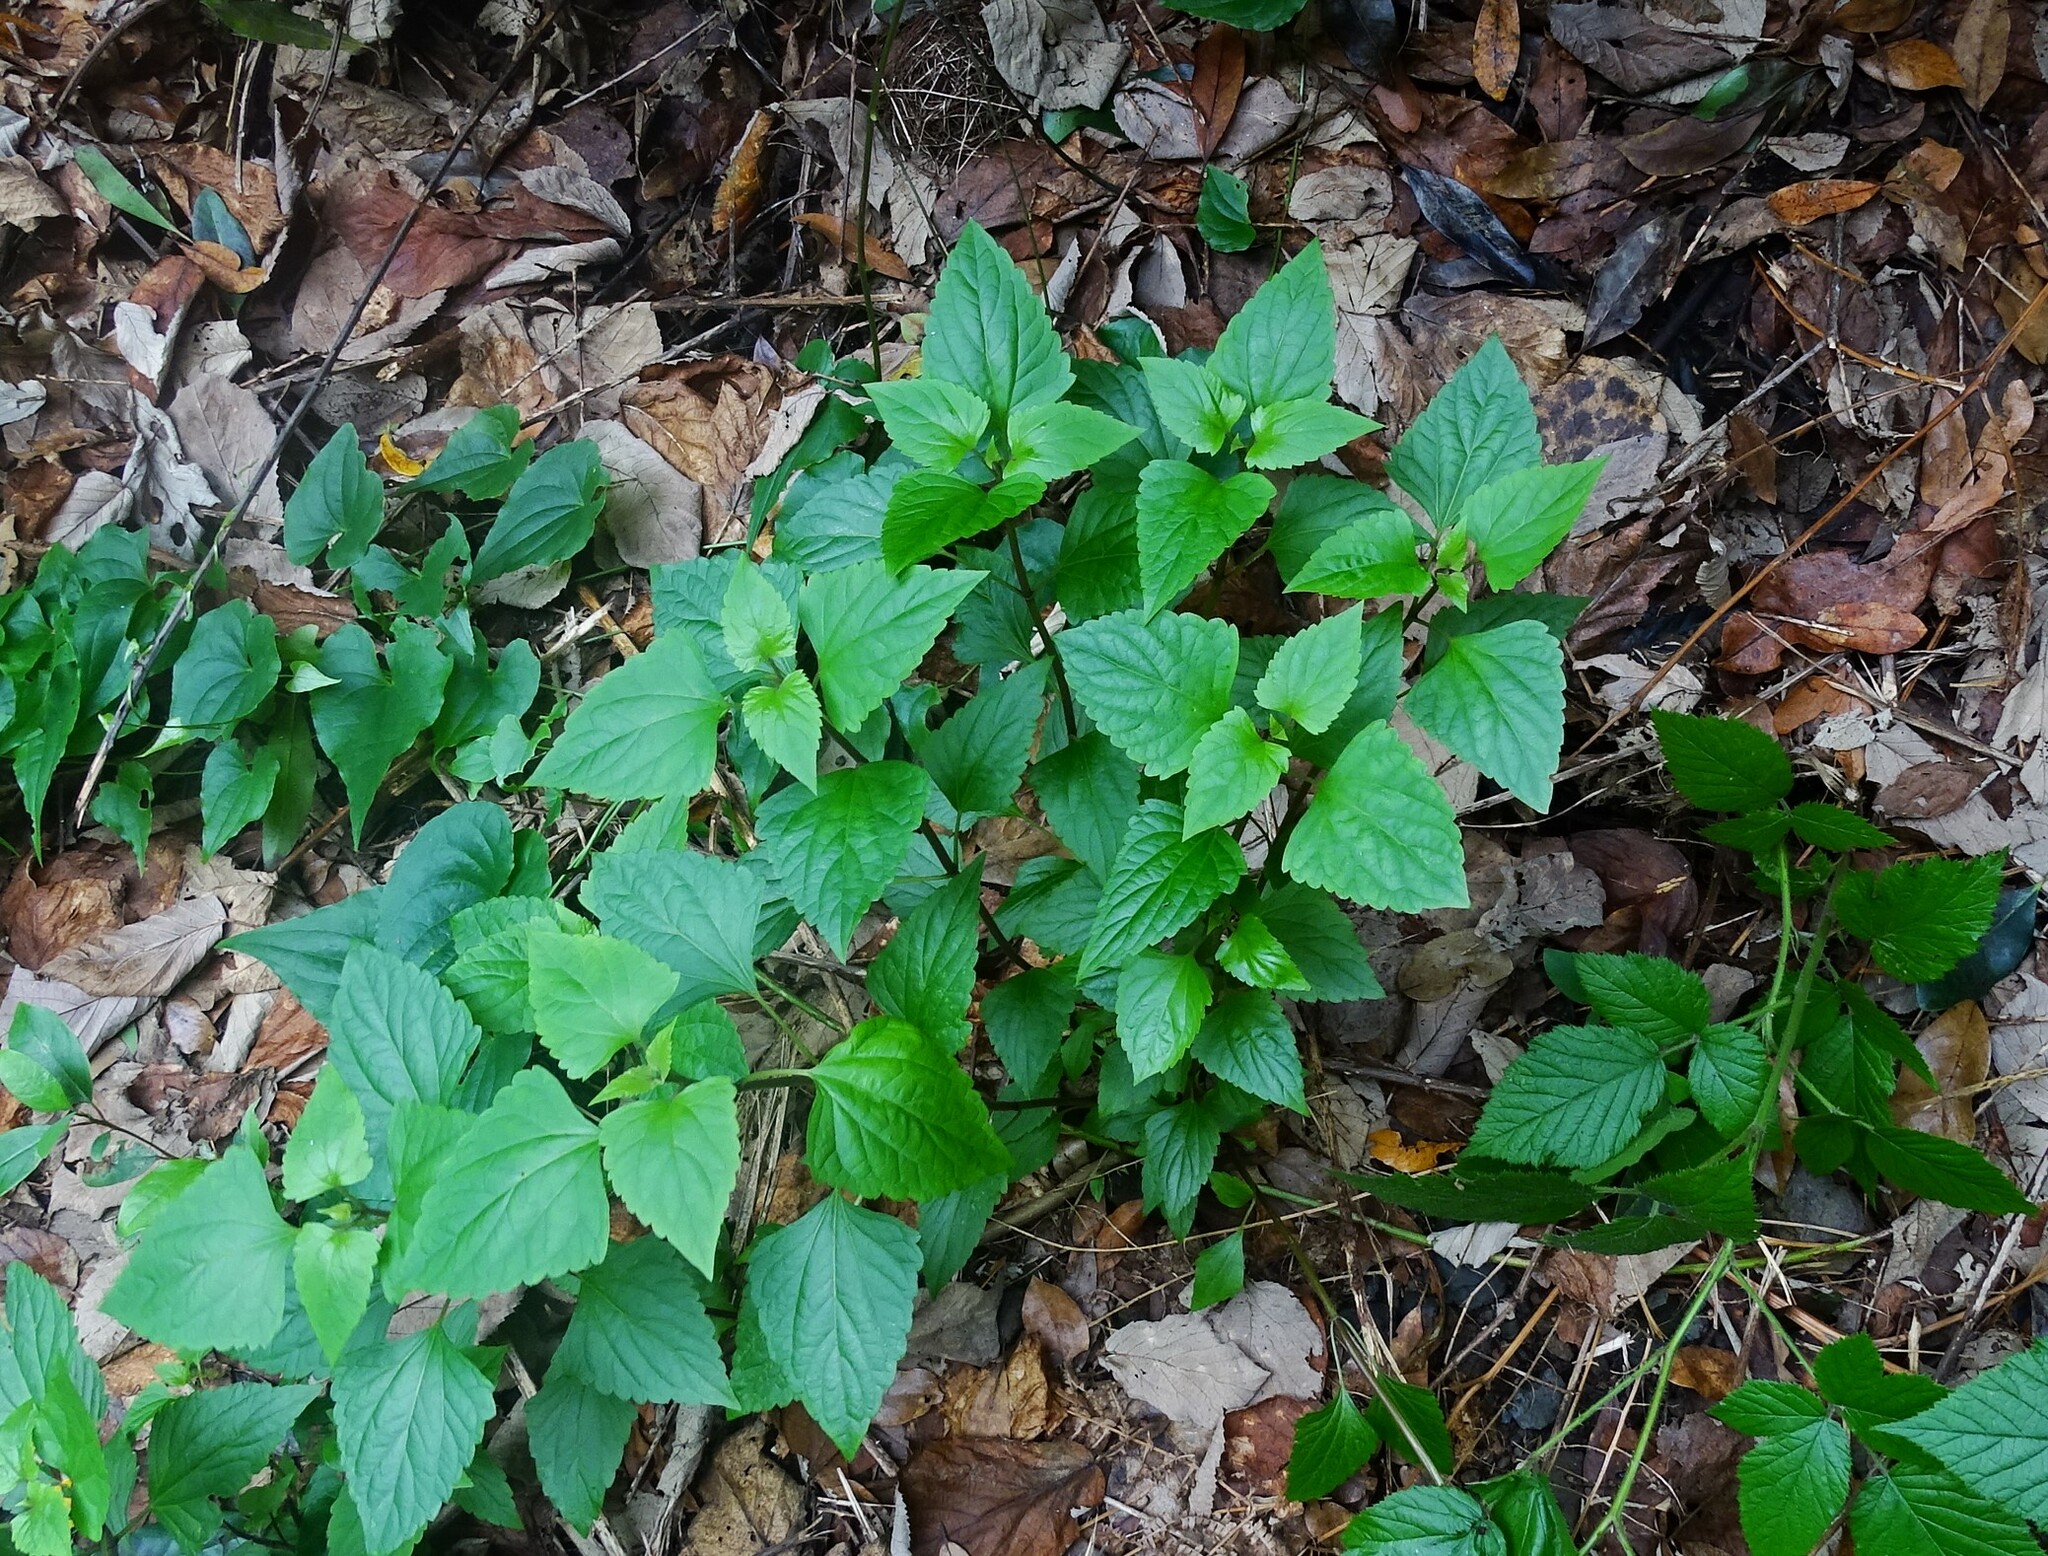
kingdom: Plantae
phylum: Tracheophyta
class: Magnoliopsida
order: Asterales
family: Asteraceae
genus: Ageratina
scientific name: Ageratina adenophora
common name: Sticky snakeroot
